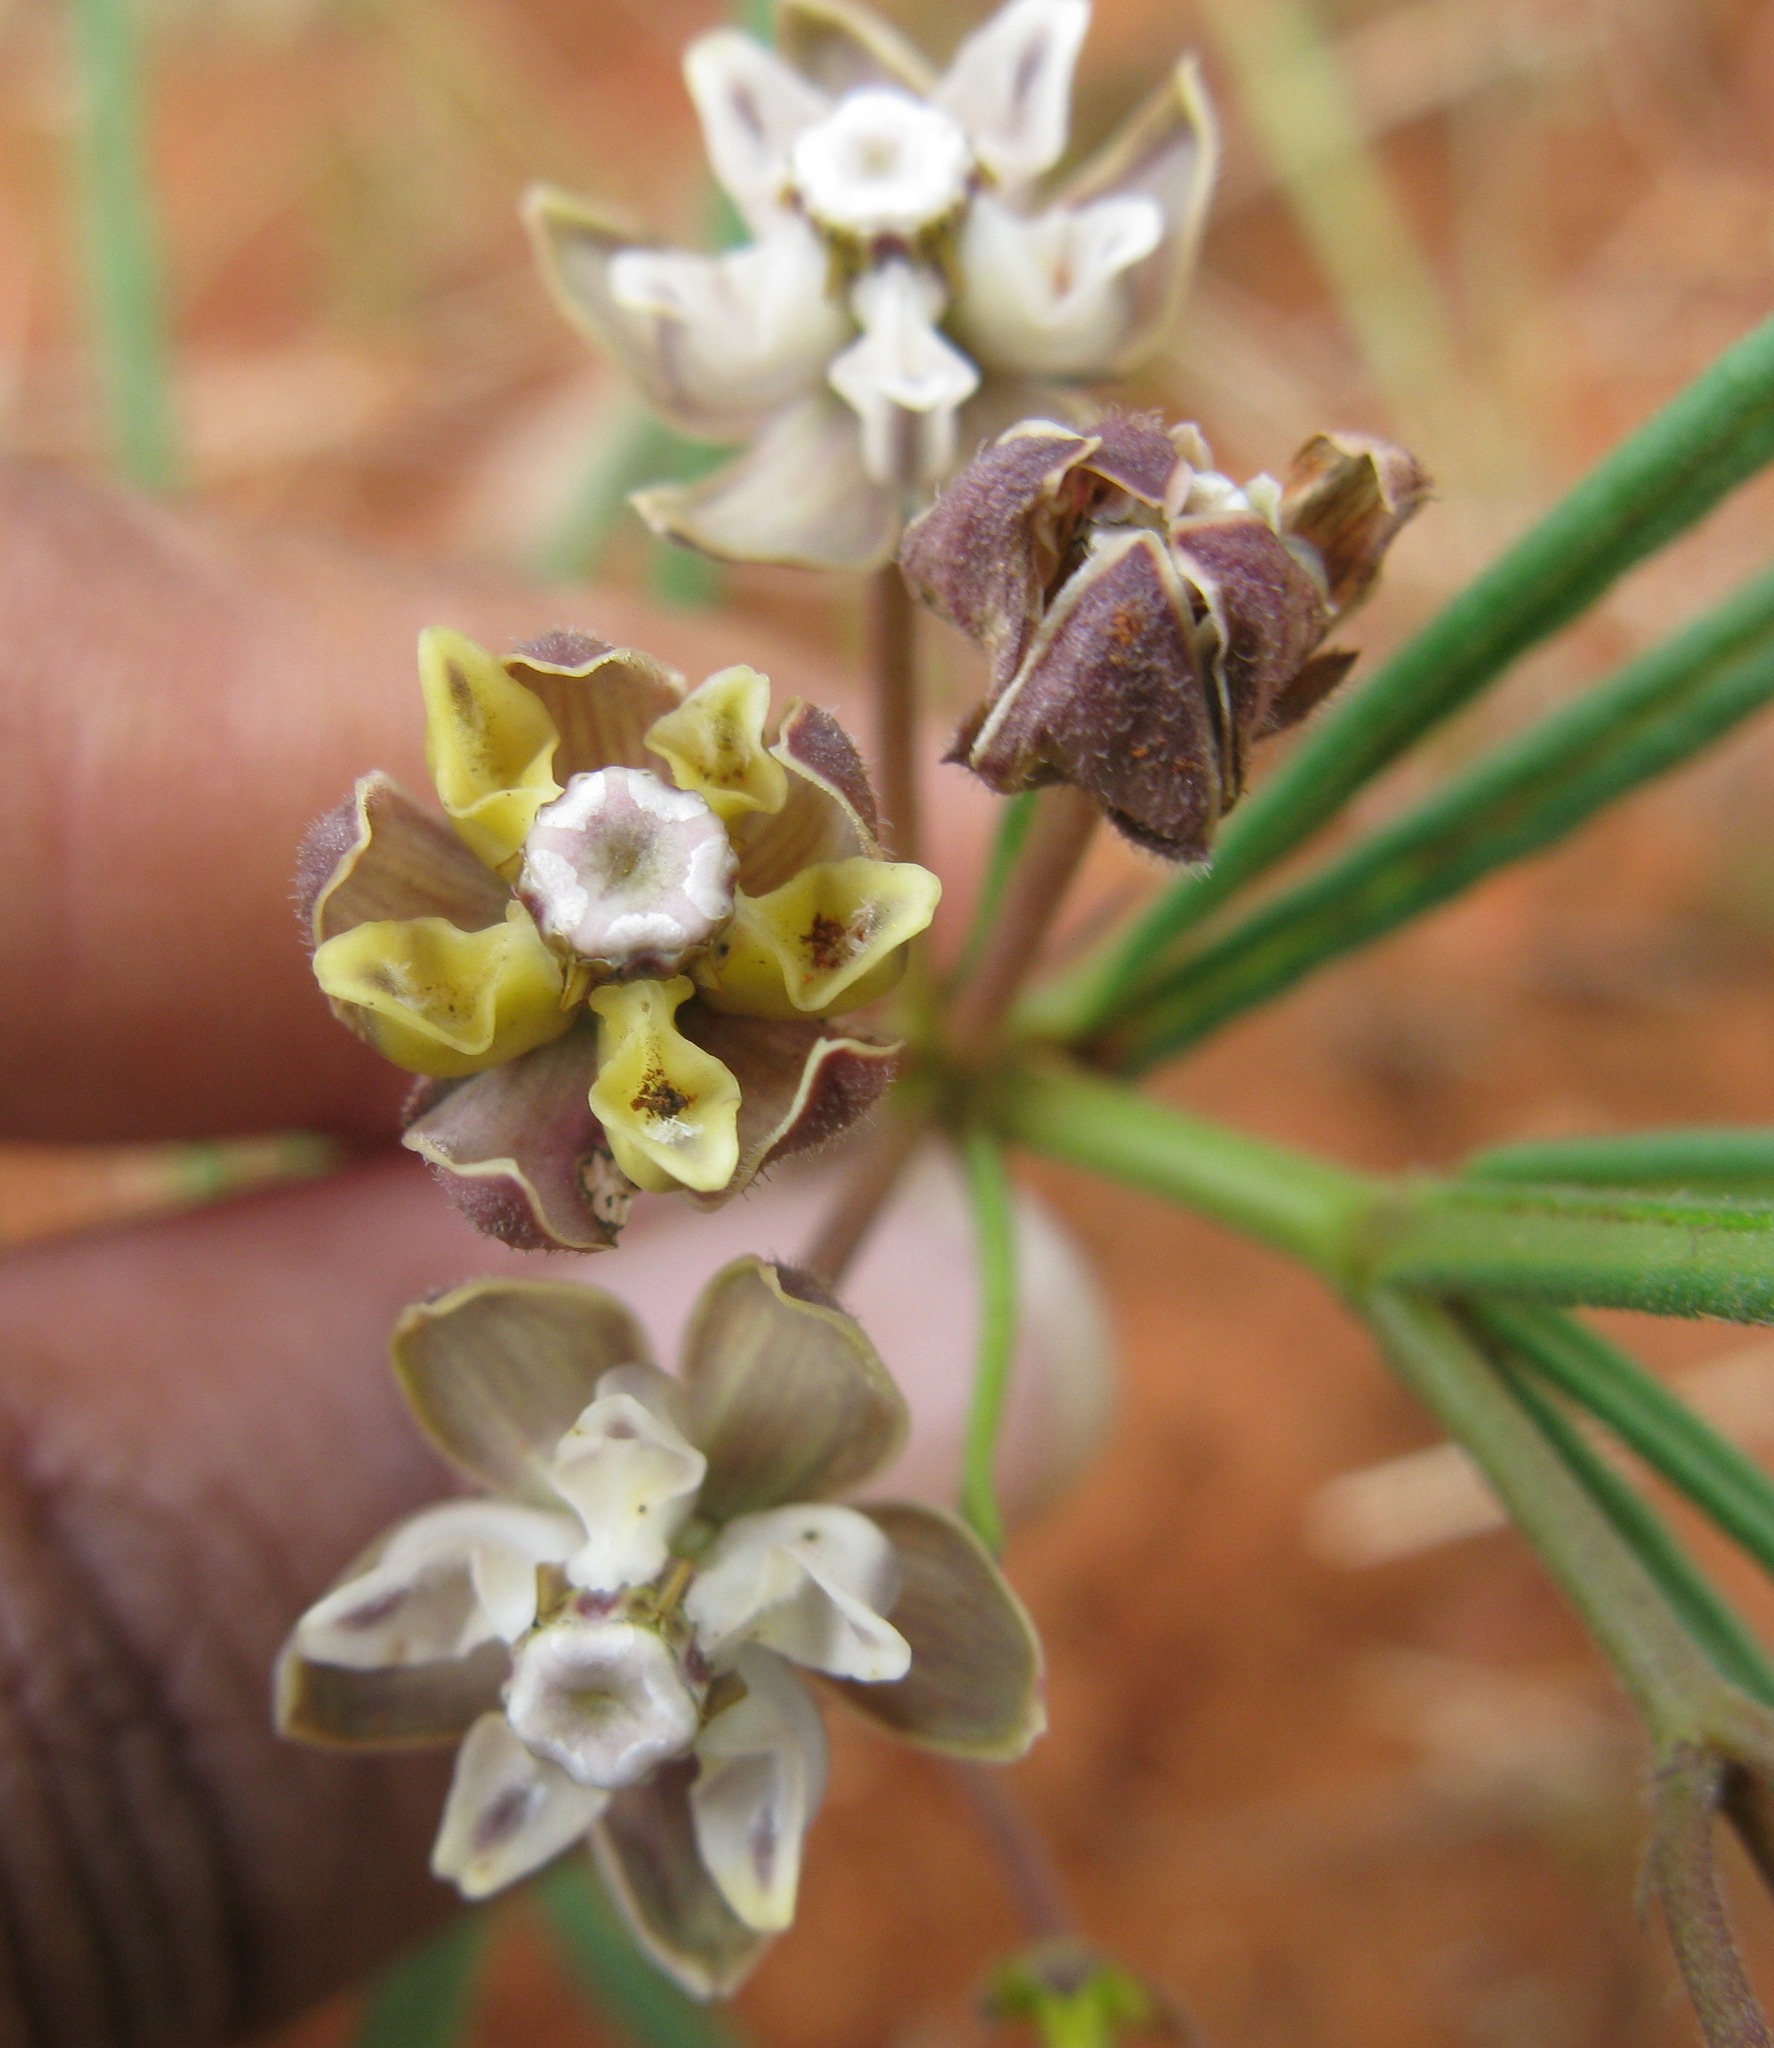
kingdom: Plantae
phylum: Tracheophyta
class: Magnoliopsida
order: Gentianales
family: Apocynaceae
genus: Asclepias
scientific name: Asclepias cucullata
